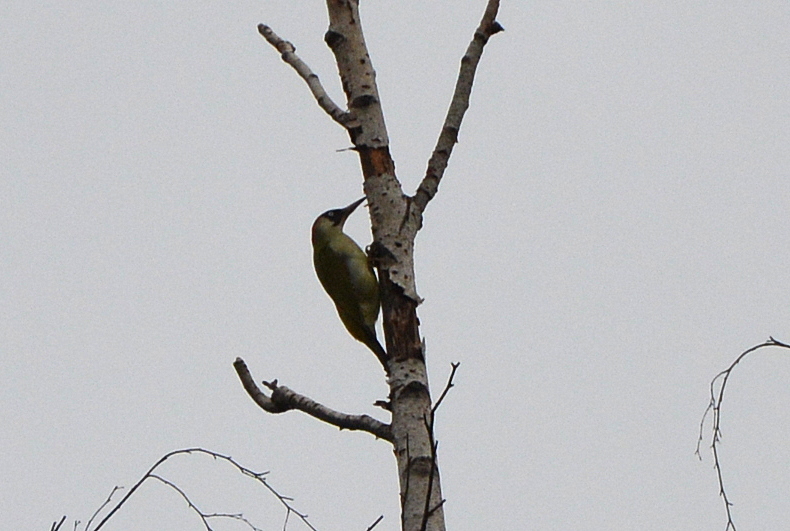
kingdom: Animalia
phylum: Chordata
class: Aves
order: Piciformes
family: Picidae
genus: Picus
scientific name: Picus viridis
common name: European green woodpecker
